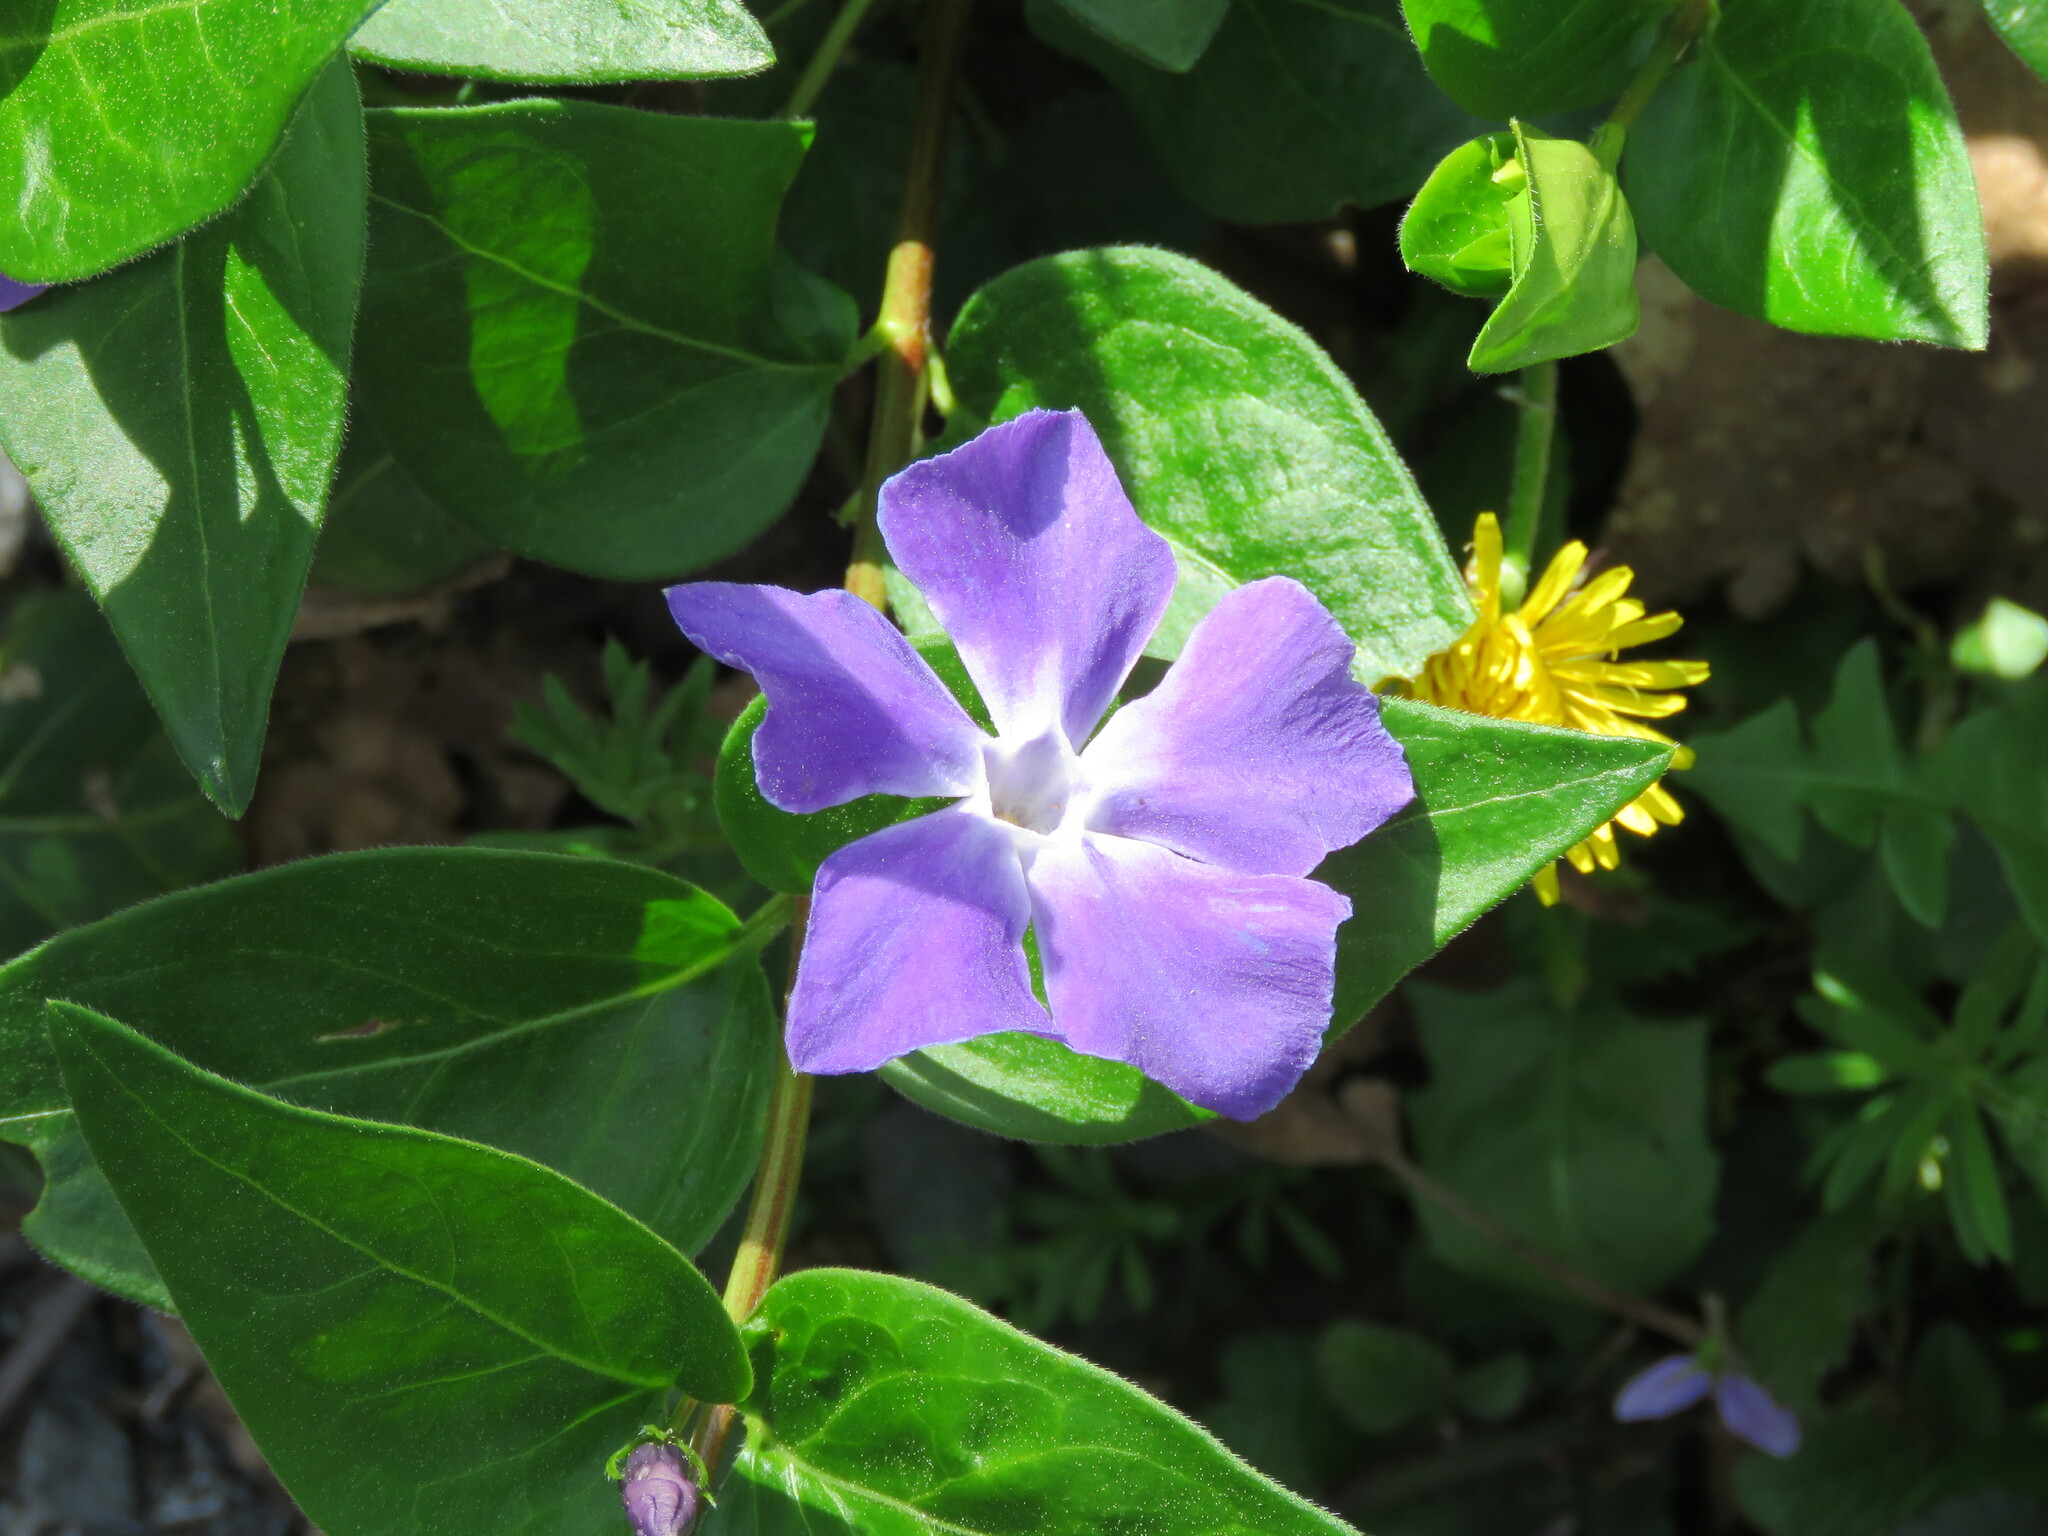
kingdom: Plantae
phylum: Tracheophyta
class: Magnoliopsida
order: Gentianales
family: Apocynaceae
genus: Vinca
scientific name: Vinca major
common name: Greater periwinkle
